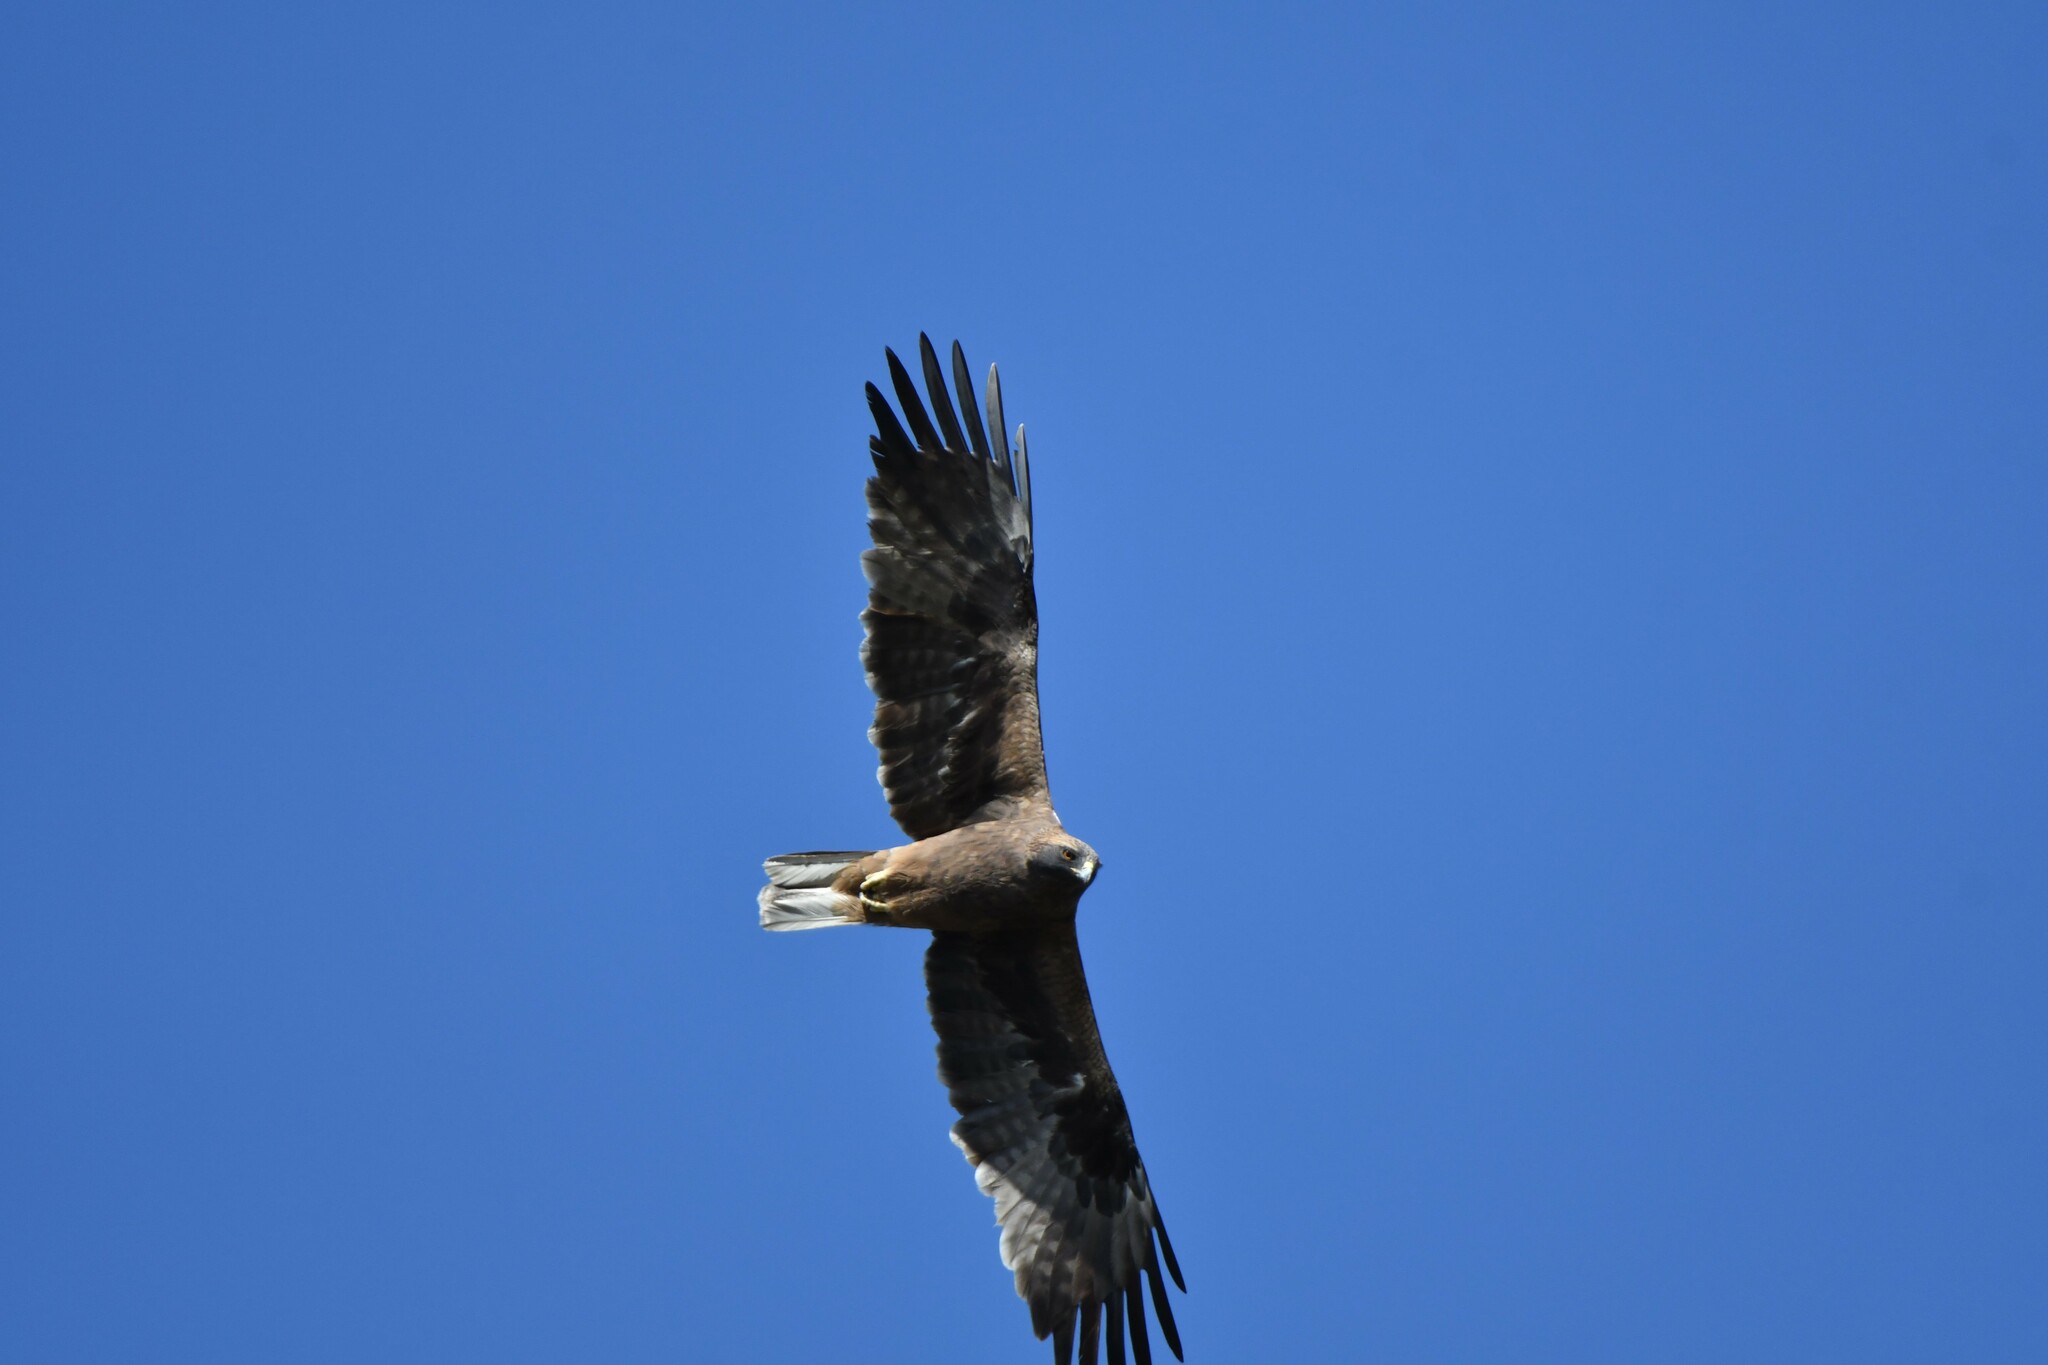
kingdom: Animalia
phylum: Chordata
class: Aves
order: Accipitriformes
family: Accipitridae
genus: Hieraaetus
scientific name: Hieraaetus pennatus
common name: Booted eagle
